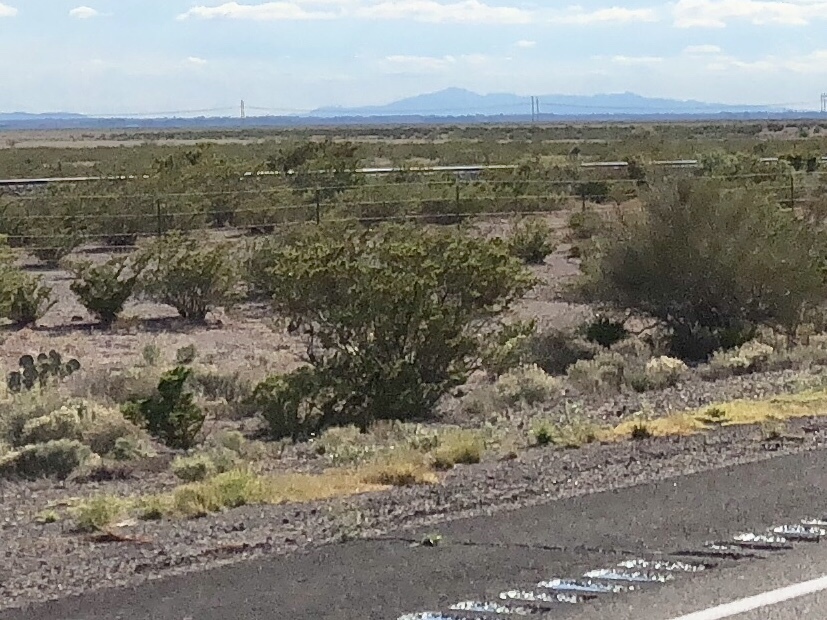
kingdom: Plantae
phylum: Tracheophyta
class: Magnoliopsida
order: Zygophyllales
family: Zygophyllaceae
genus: Larrea
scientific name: Larrea tridentata
